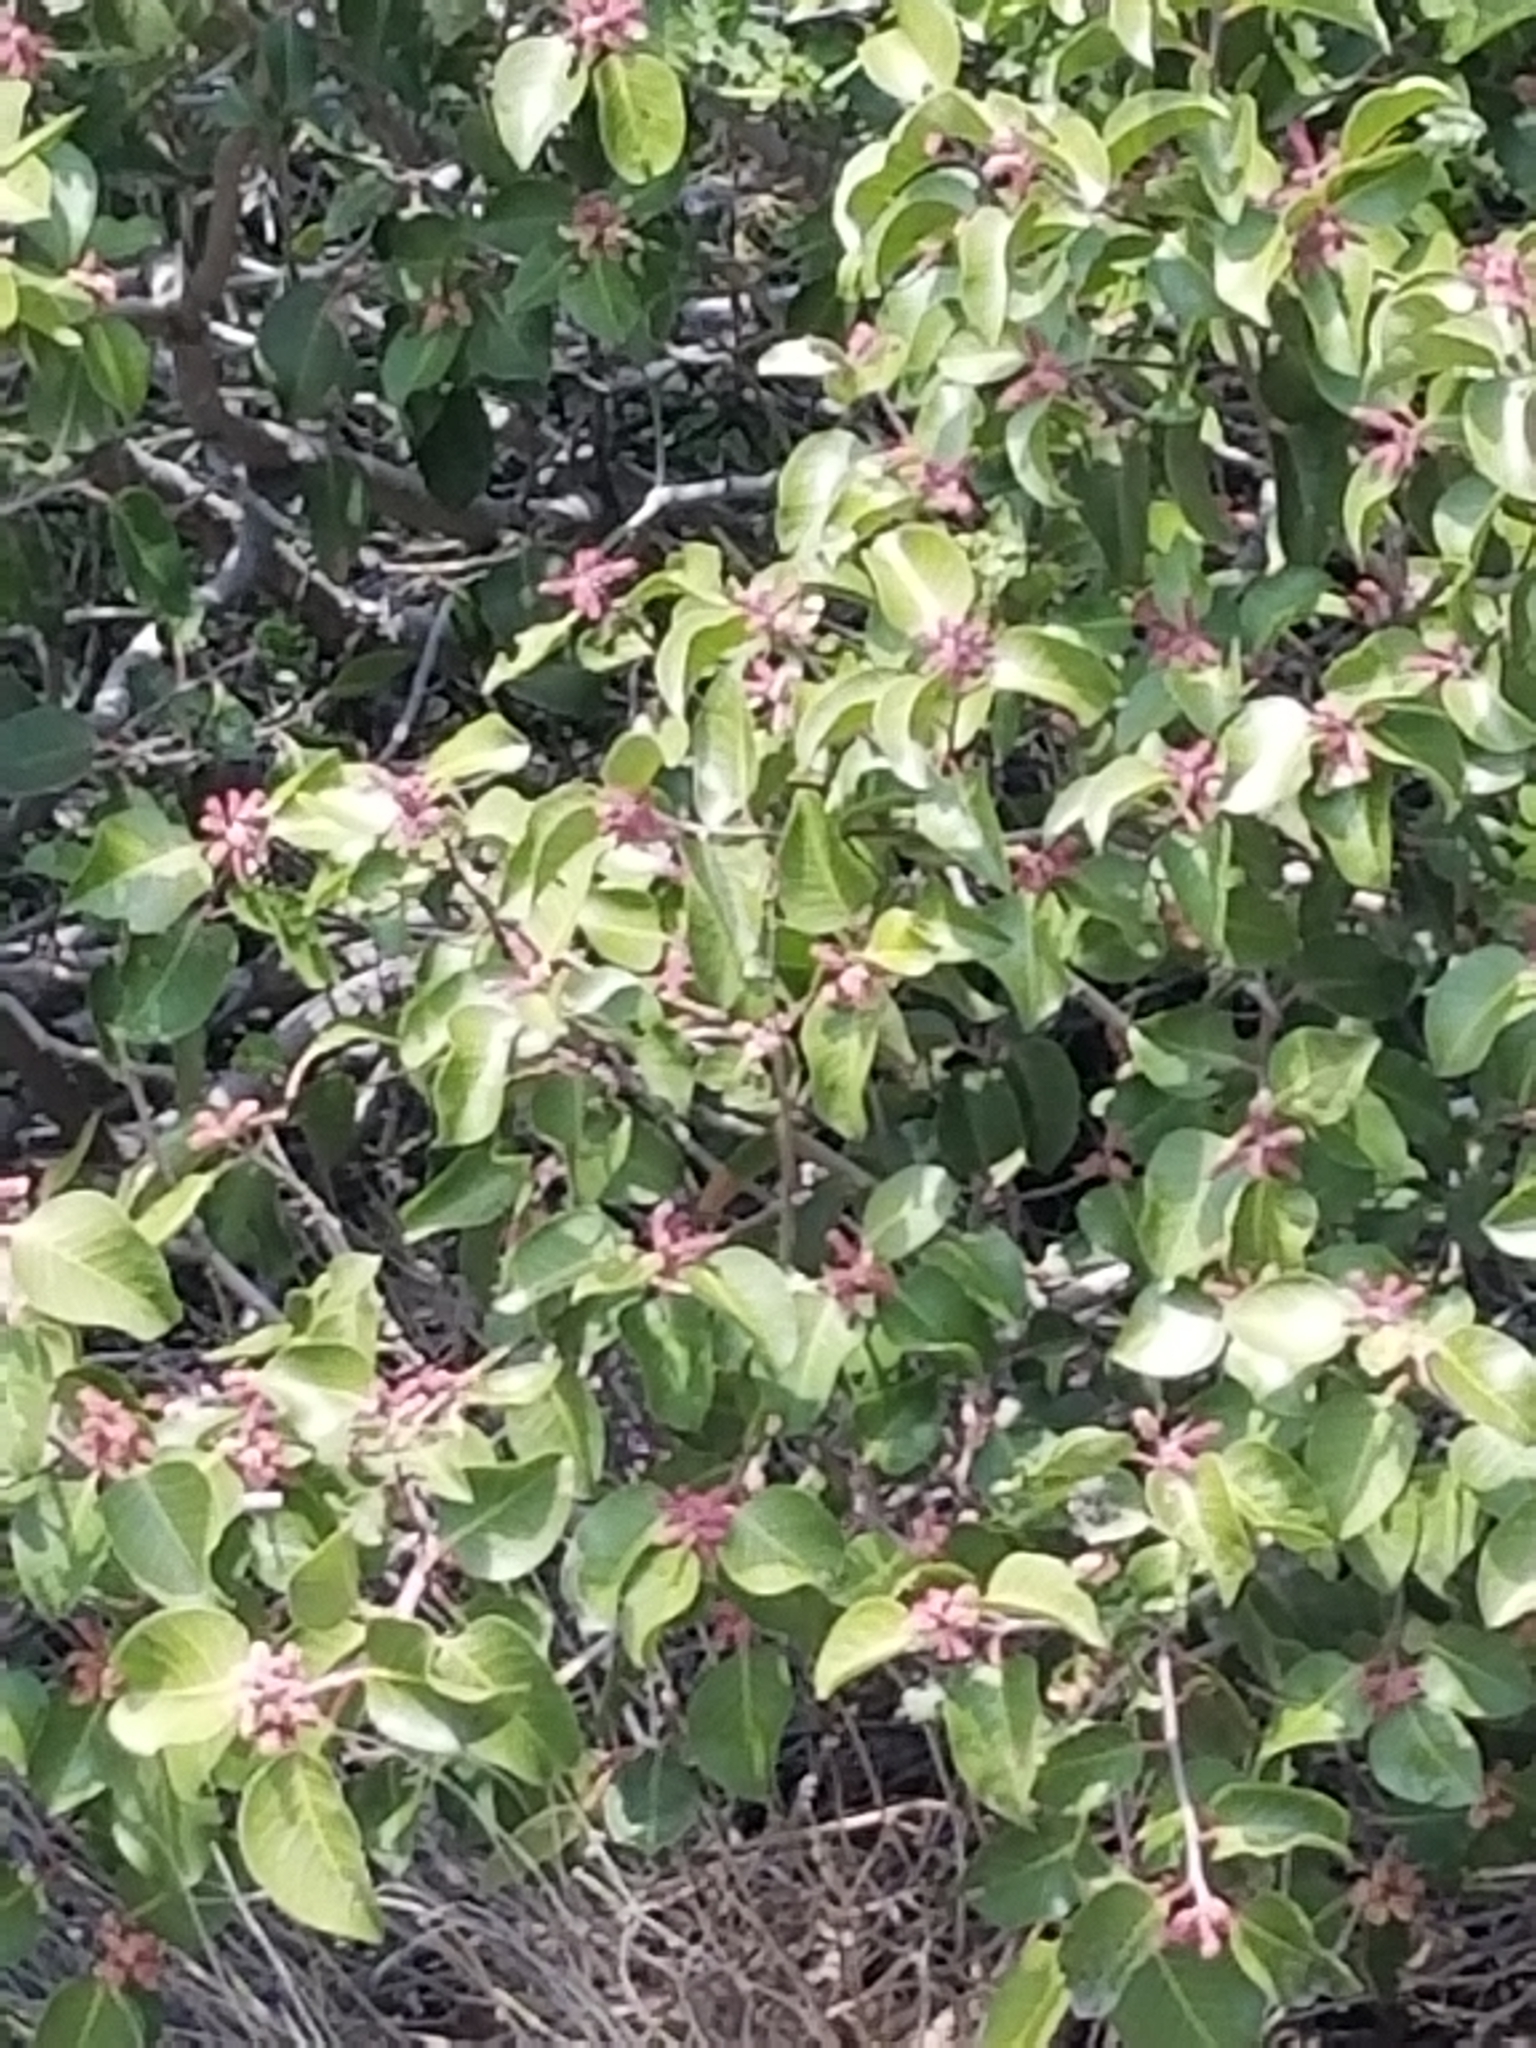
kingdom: Plantae
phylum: Tracheophyta
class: Magnoliopsida
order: Sapindales
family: Anacardiaceae
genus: Rhus
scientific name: Rhus ovata
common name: Sugar sumac
